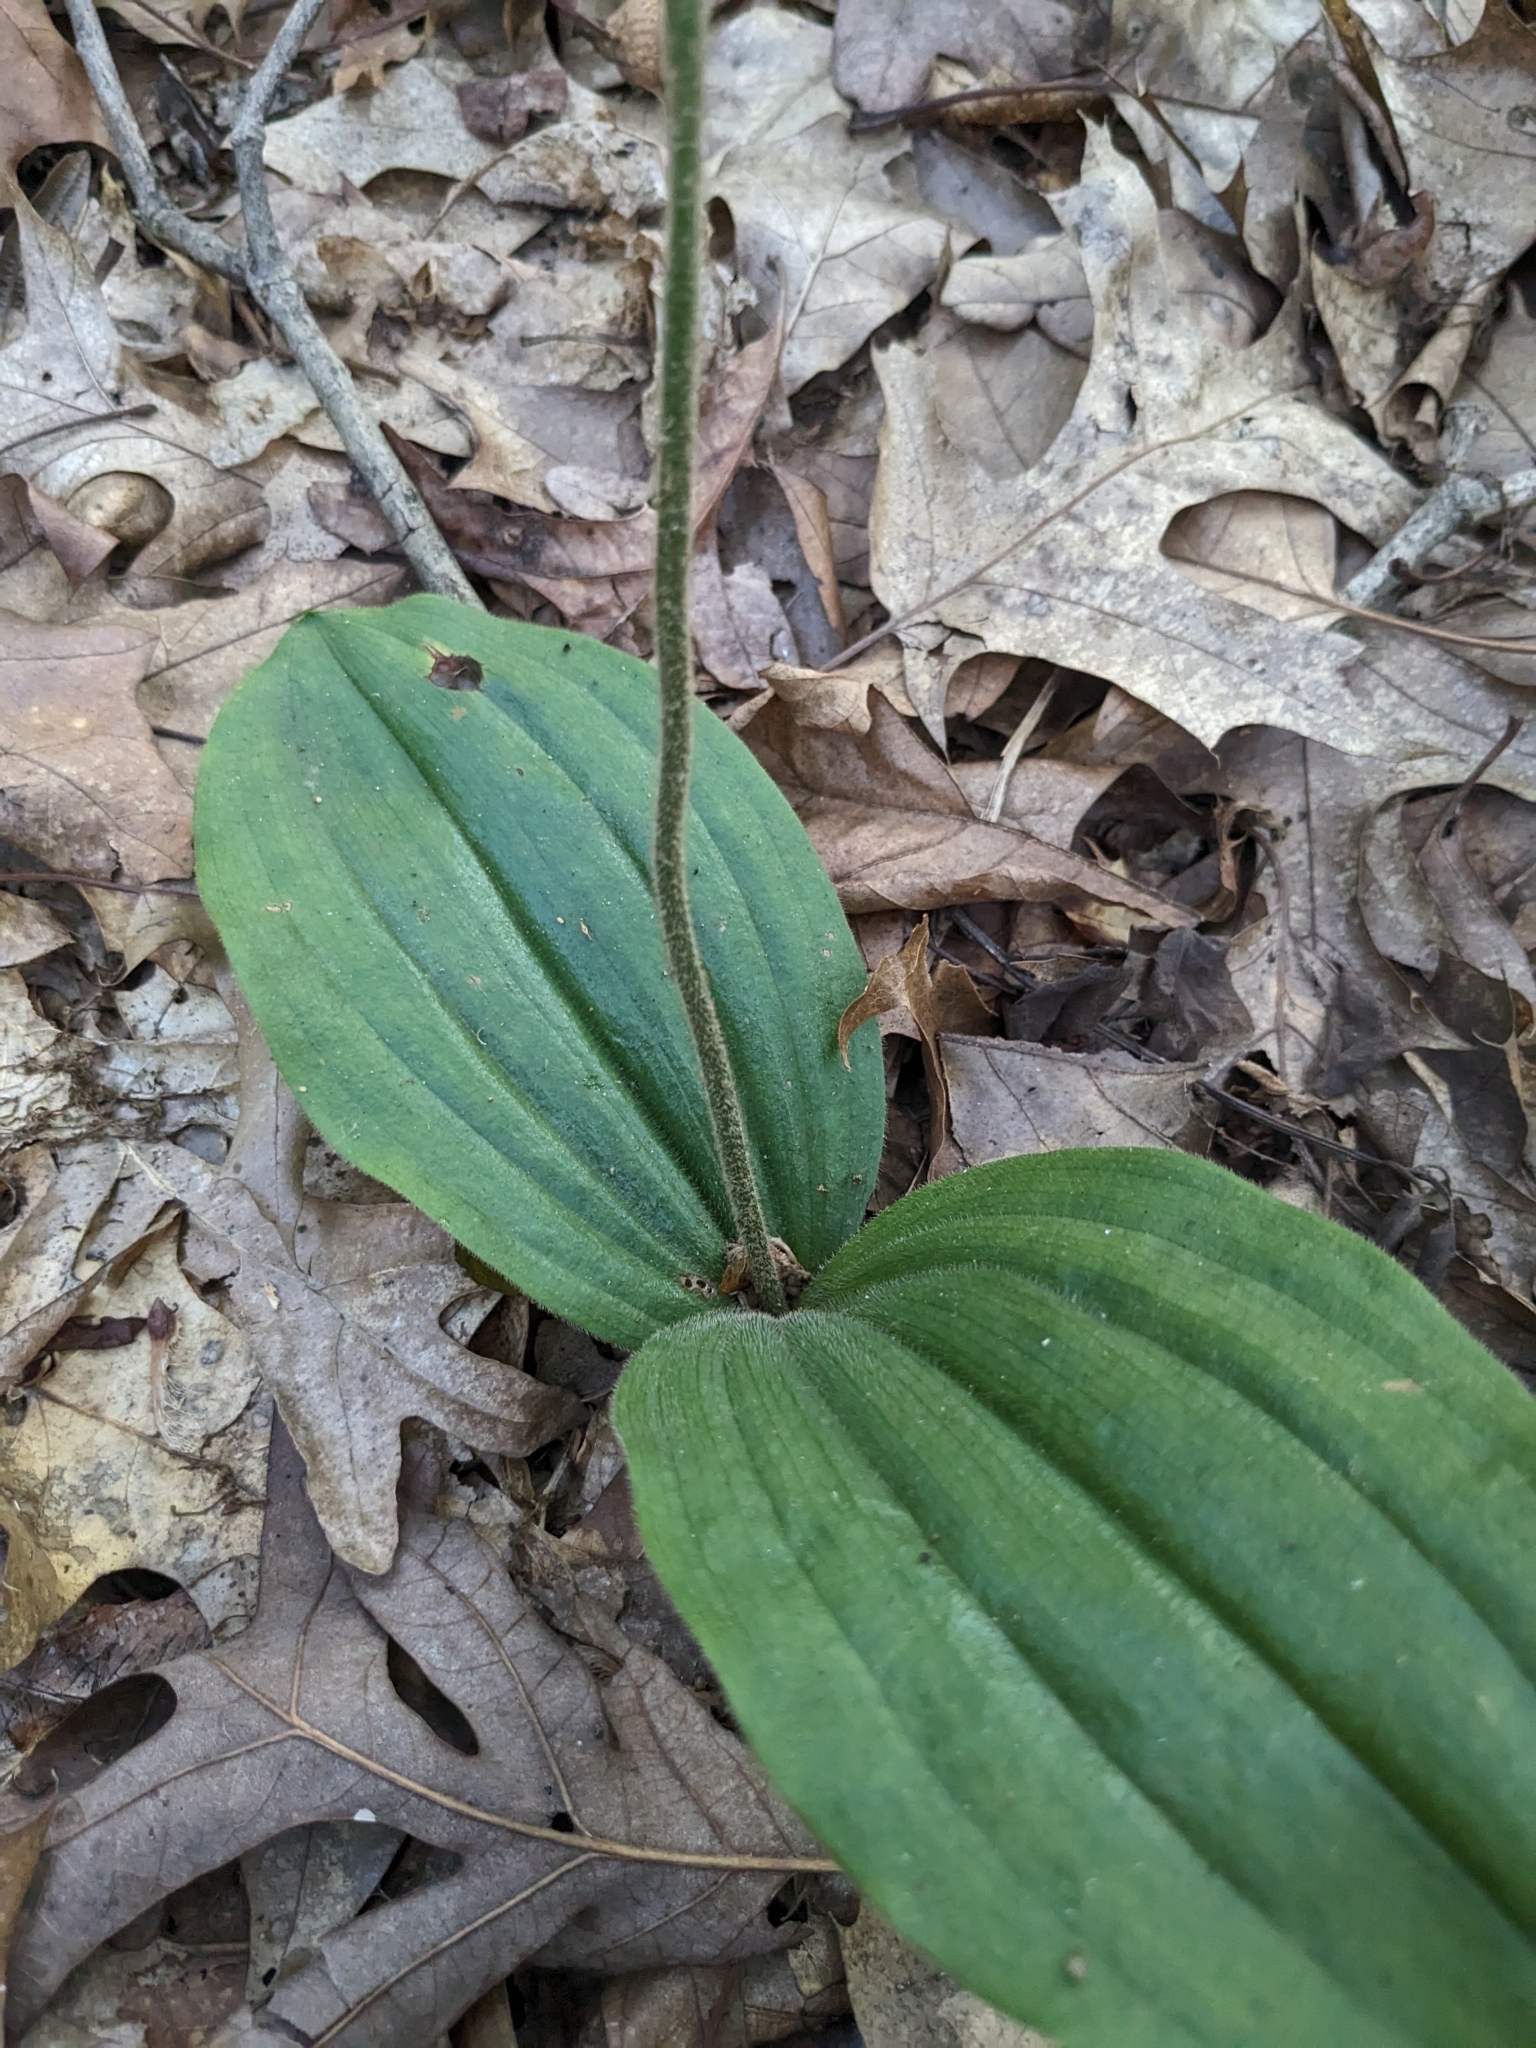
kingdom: Plantae
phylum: Tracheophyta
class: Liliopsida
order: Asparagales
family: Orchidaceae
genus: Cypripedium
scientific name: Cypripedium acaule
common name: Pink lady's-slipper
